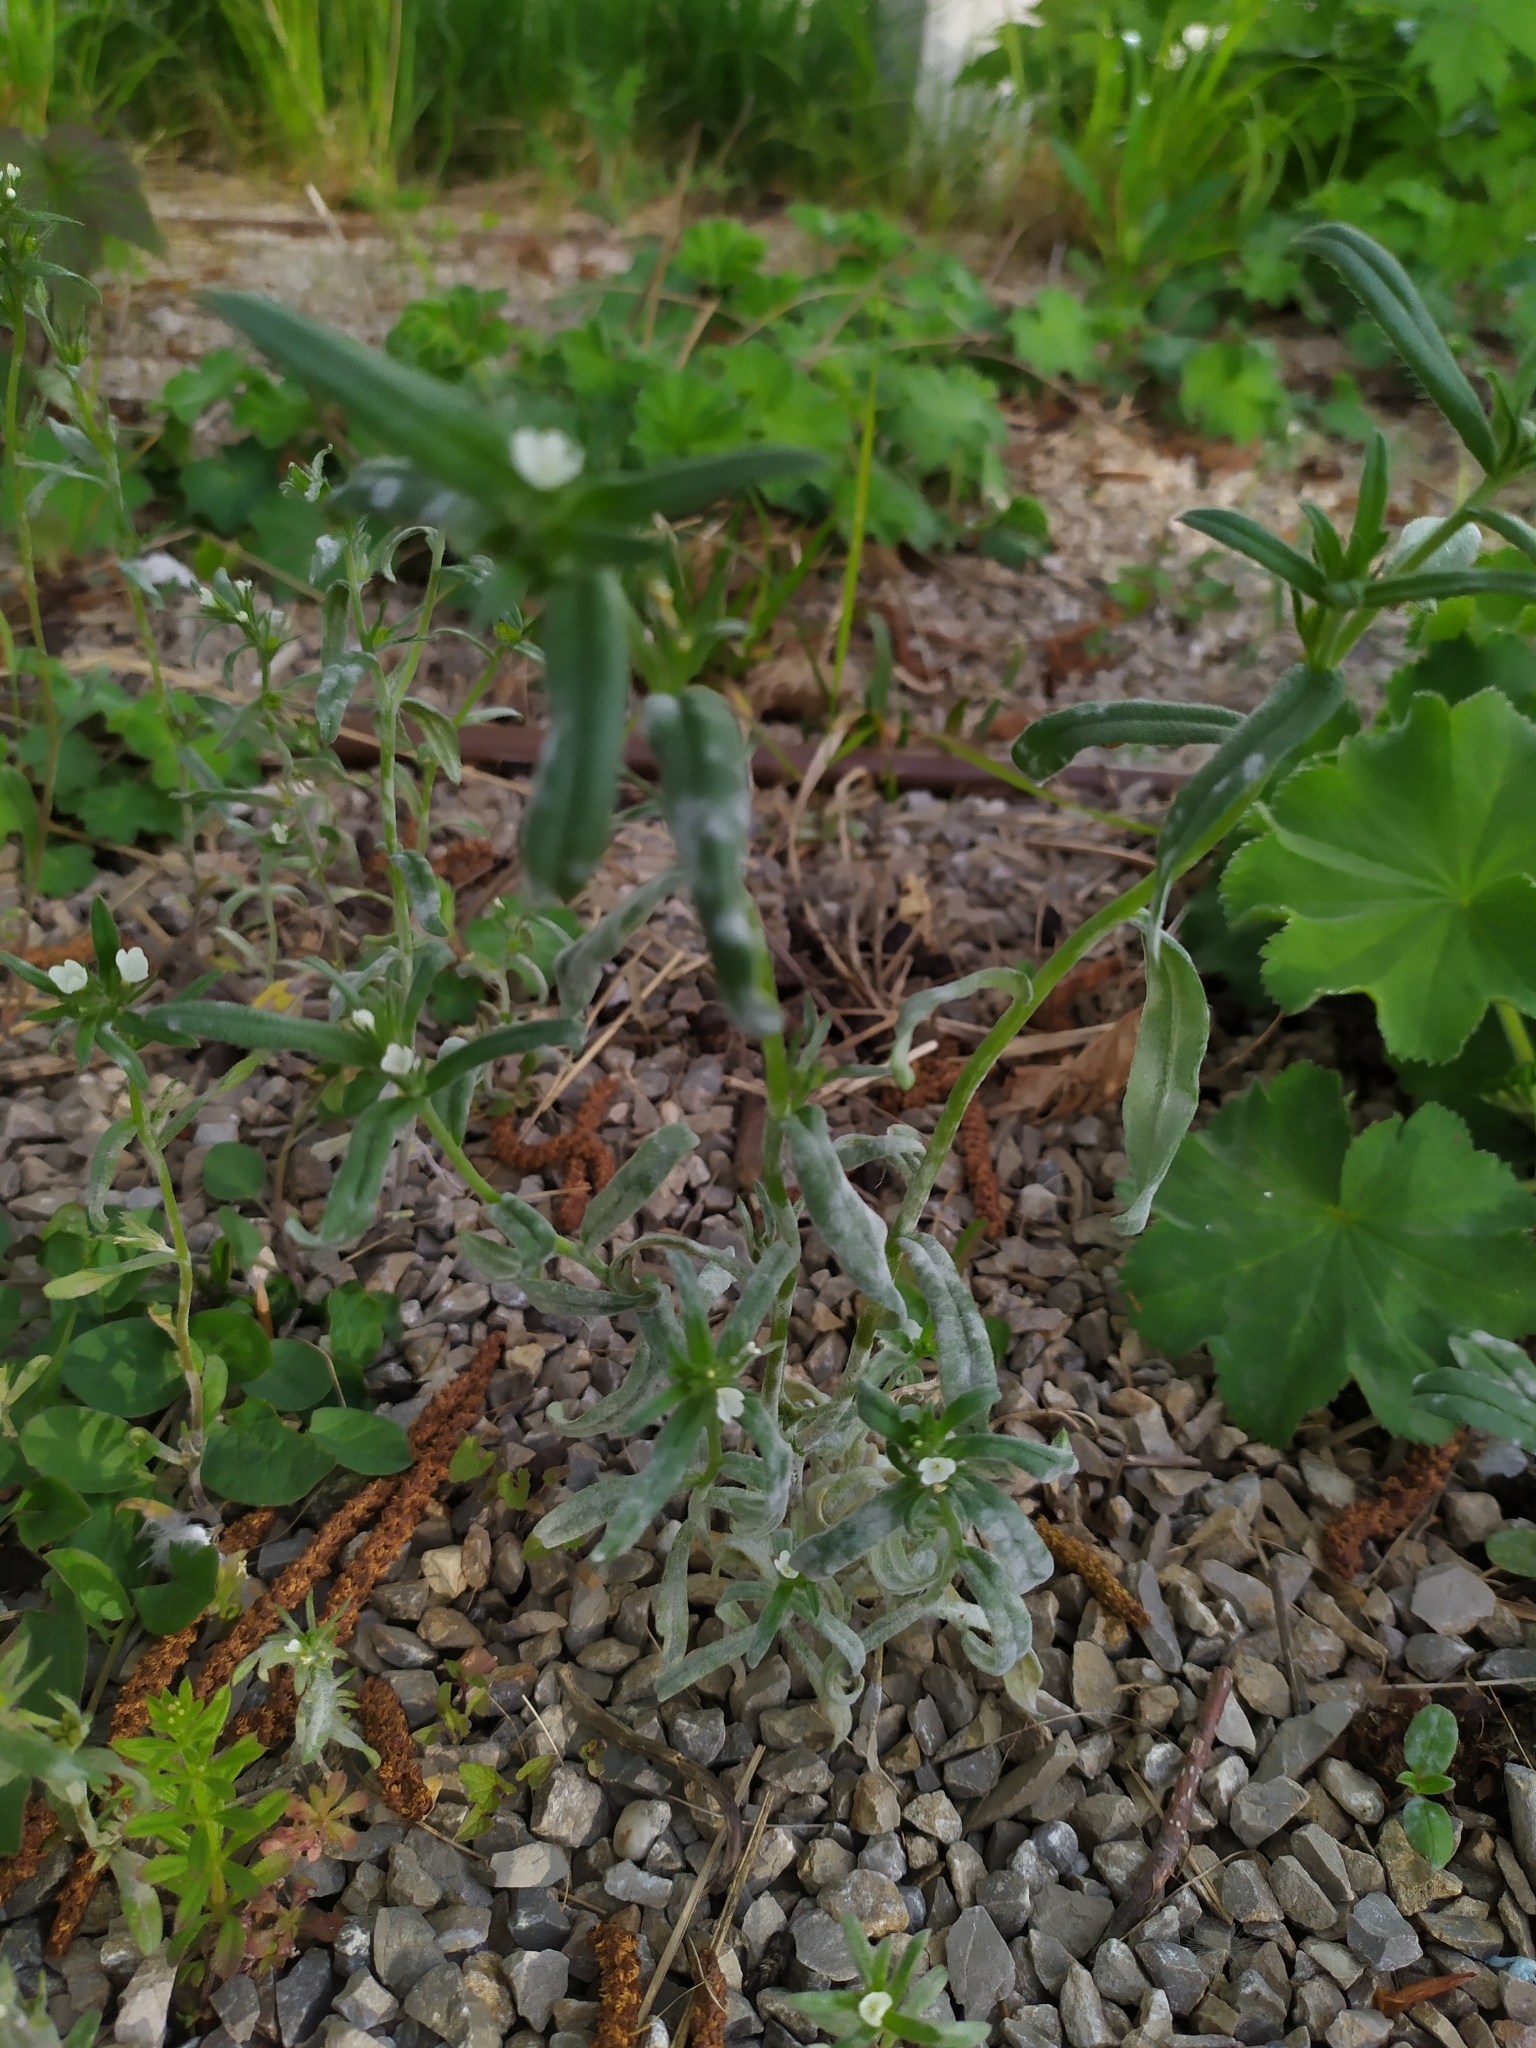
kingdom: Fungi
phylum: Ascomycota
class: Leotiomycetes
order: Helotiales
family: Erysiphaceae
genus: Golovinomyces
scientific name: Golovinomyces asperifolii
